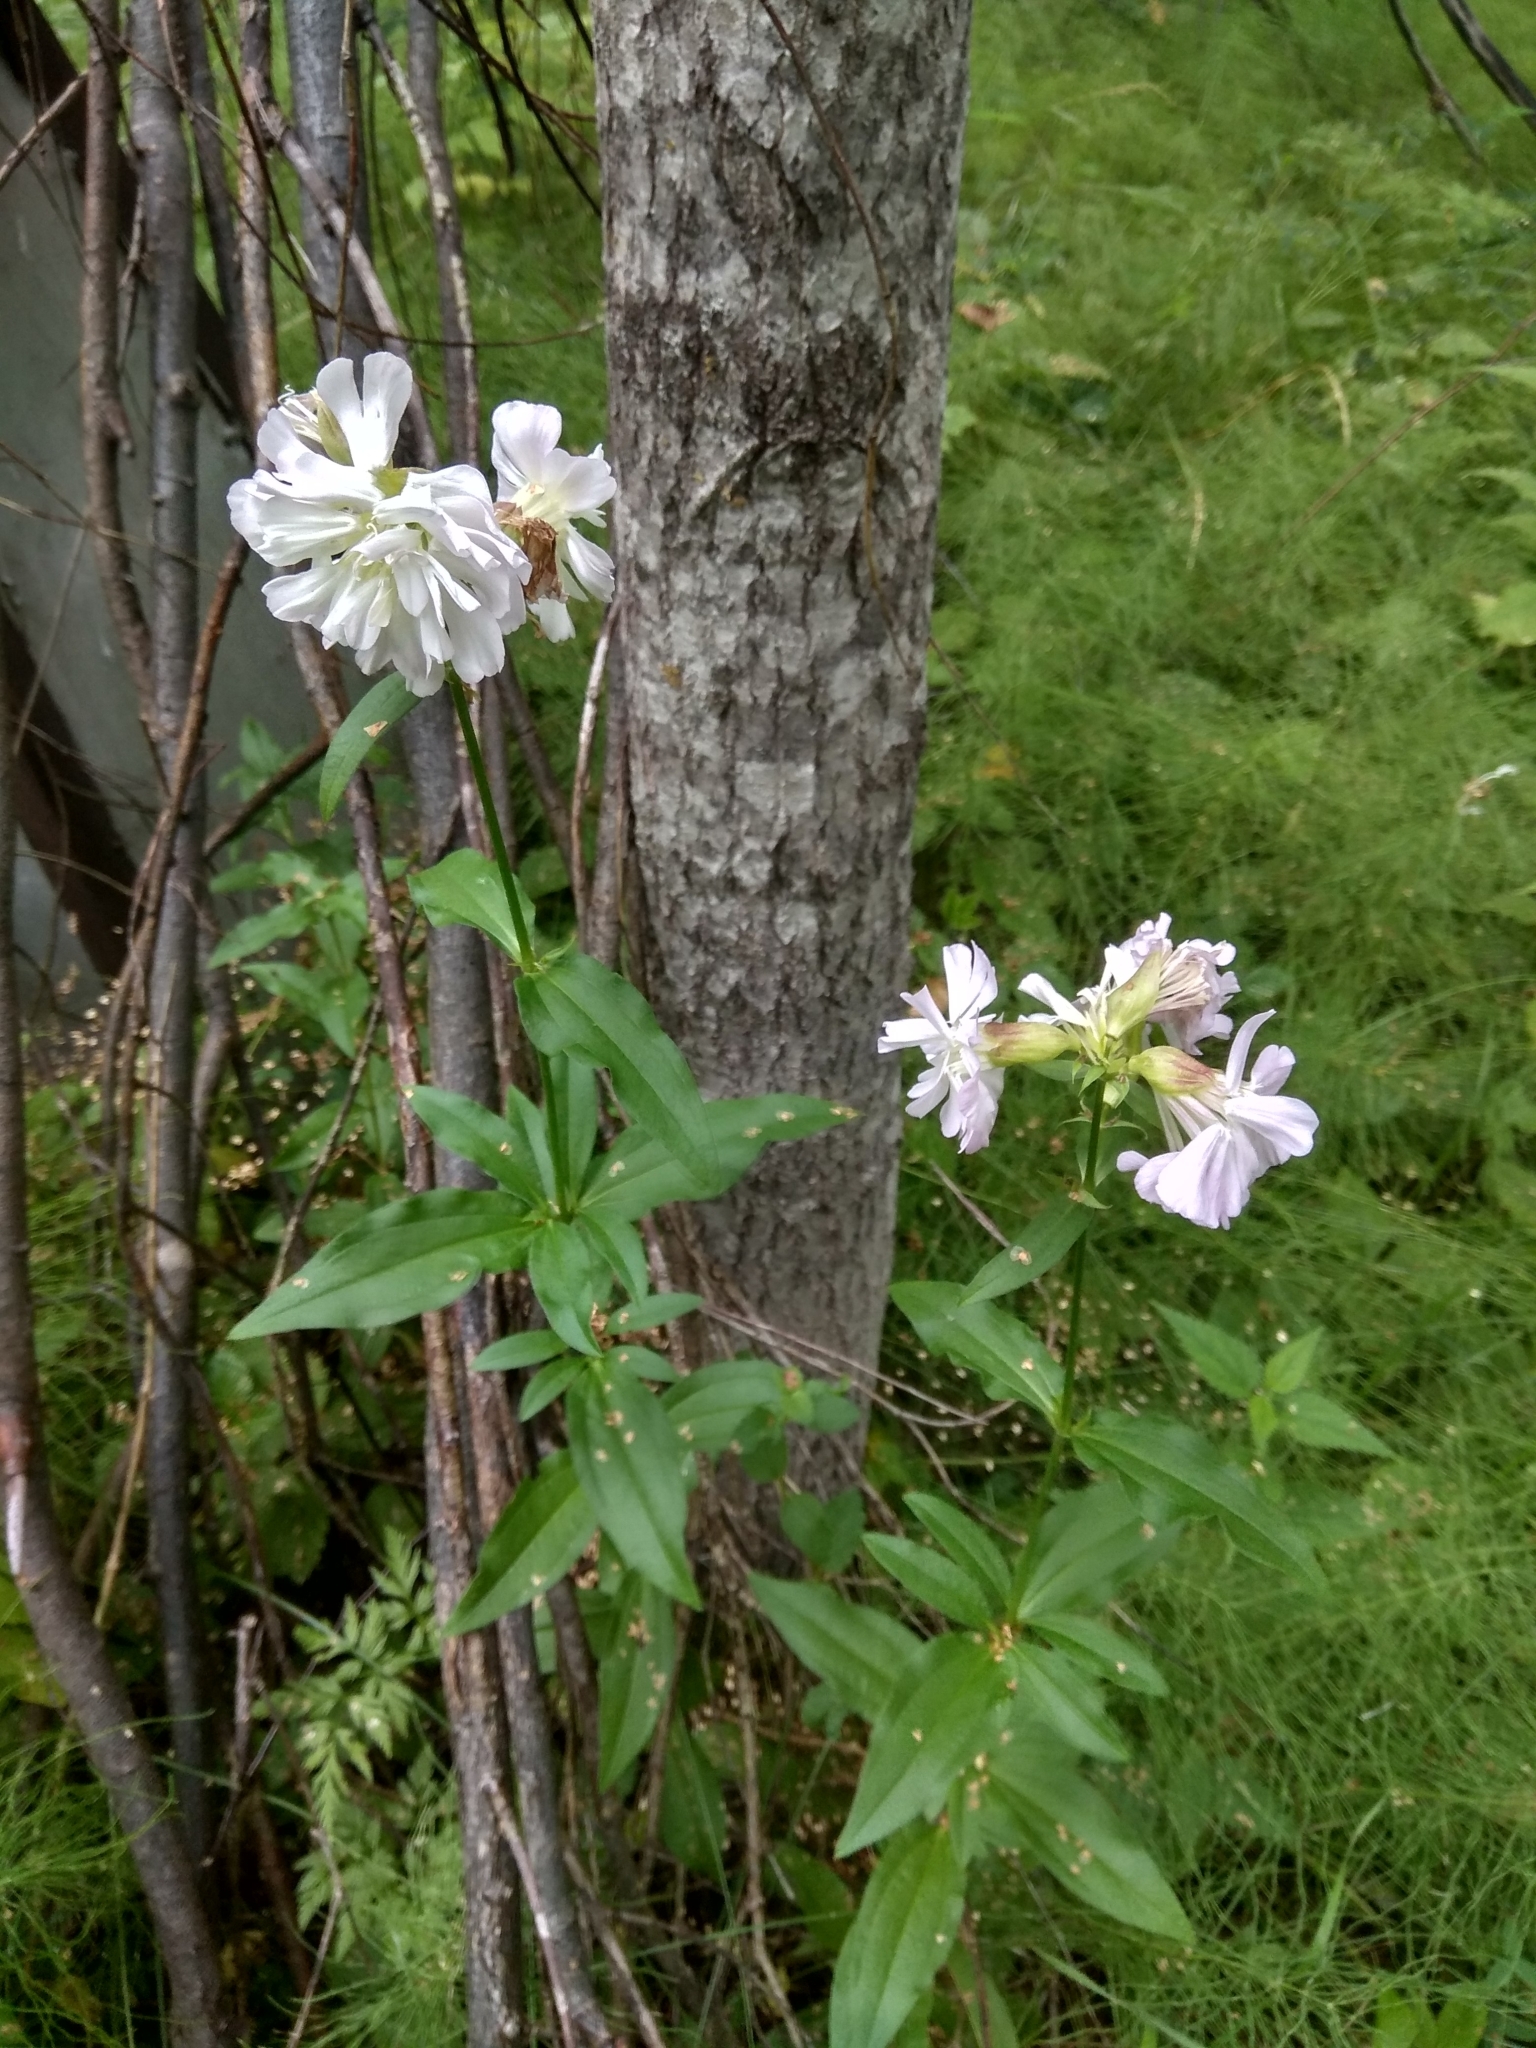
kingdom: Plantae
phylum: Tracheophyta
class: Magnoliopsida
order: Caryophyllales
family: Caryophyllaceae
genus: Saponaria
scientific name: Saponaria officinalis
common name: Soapwort
